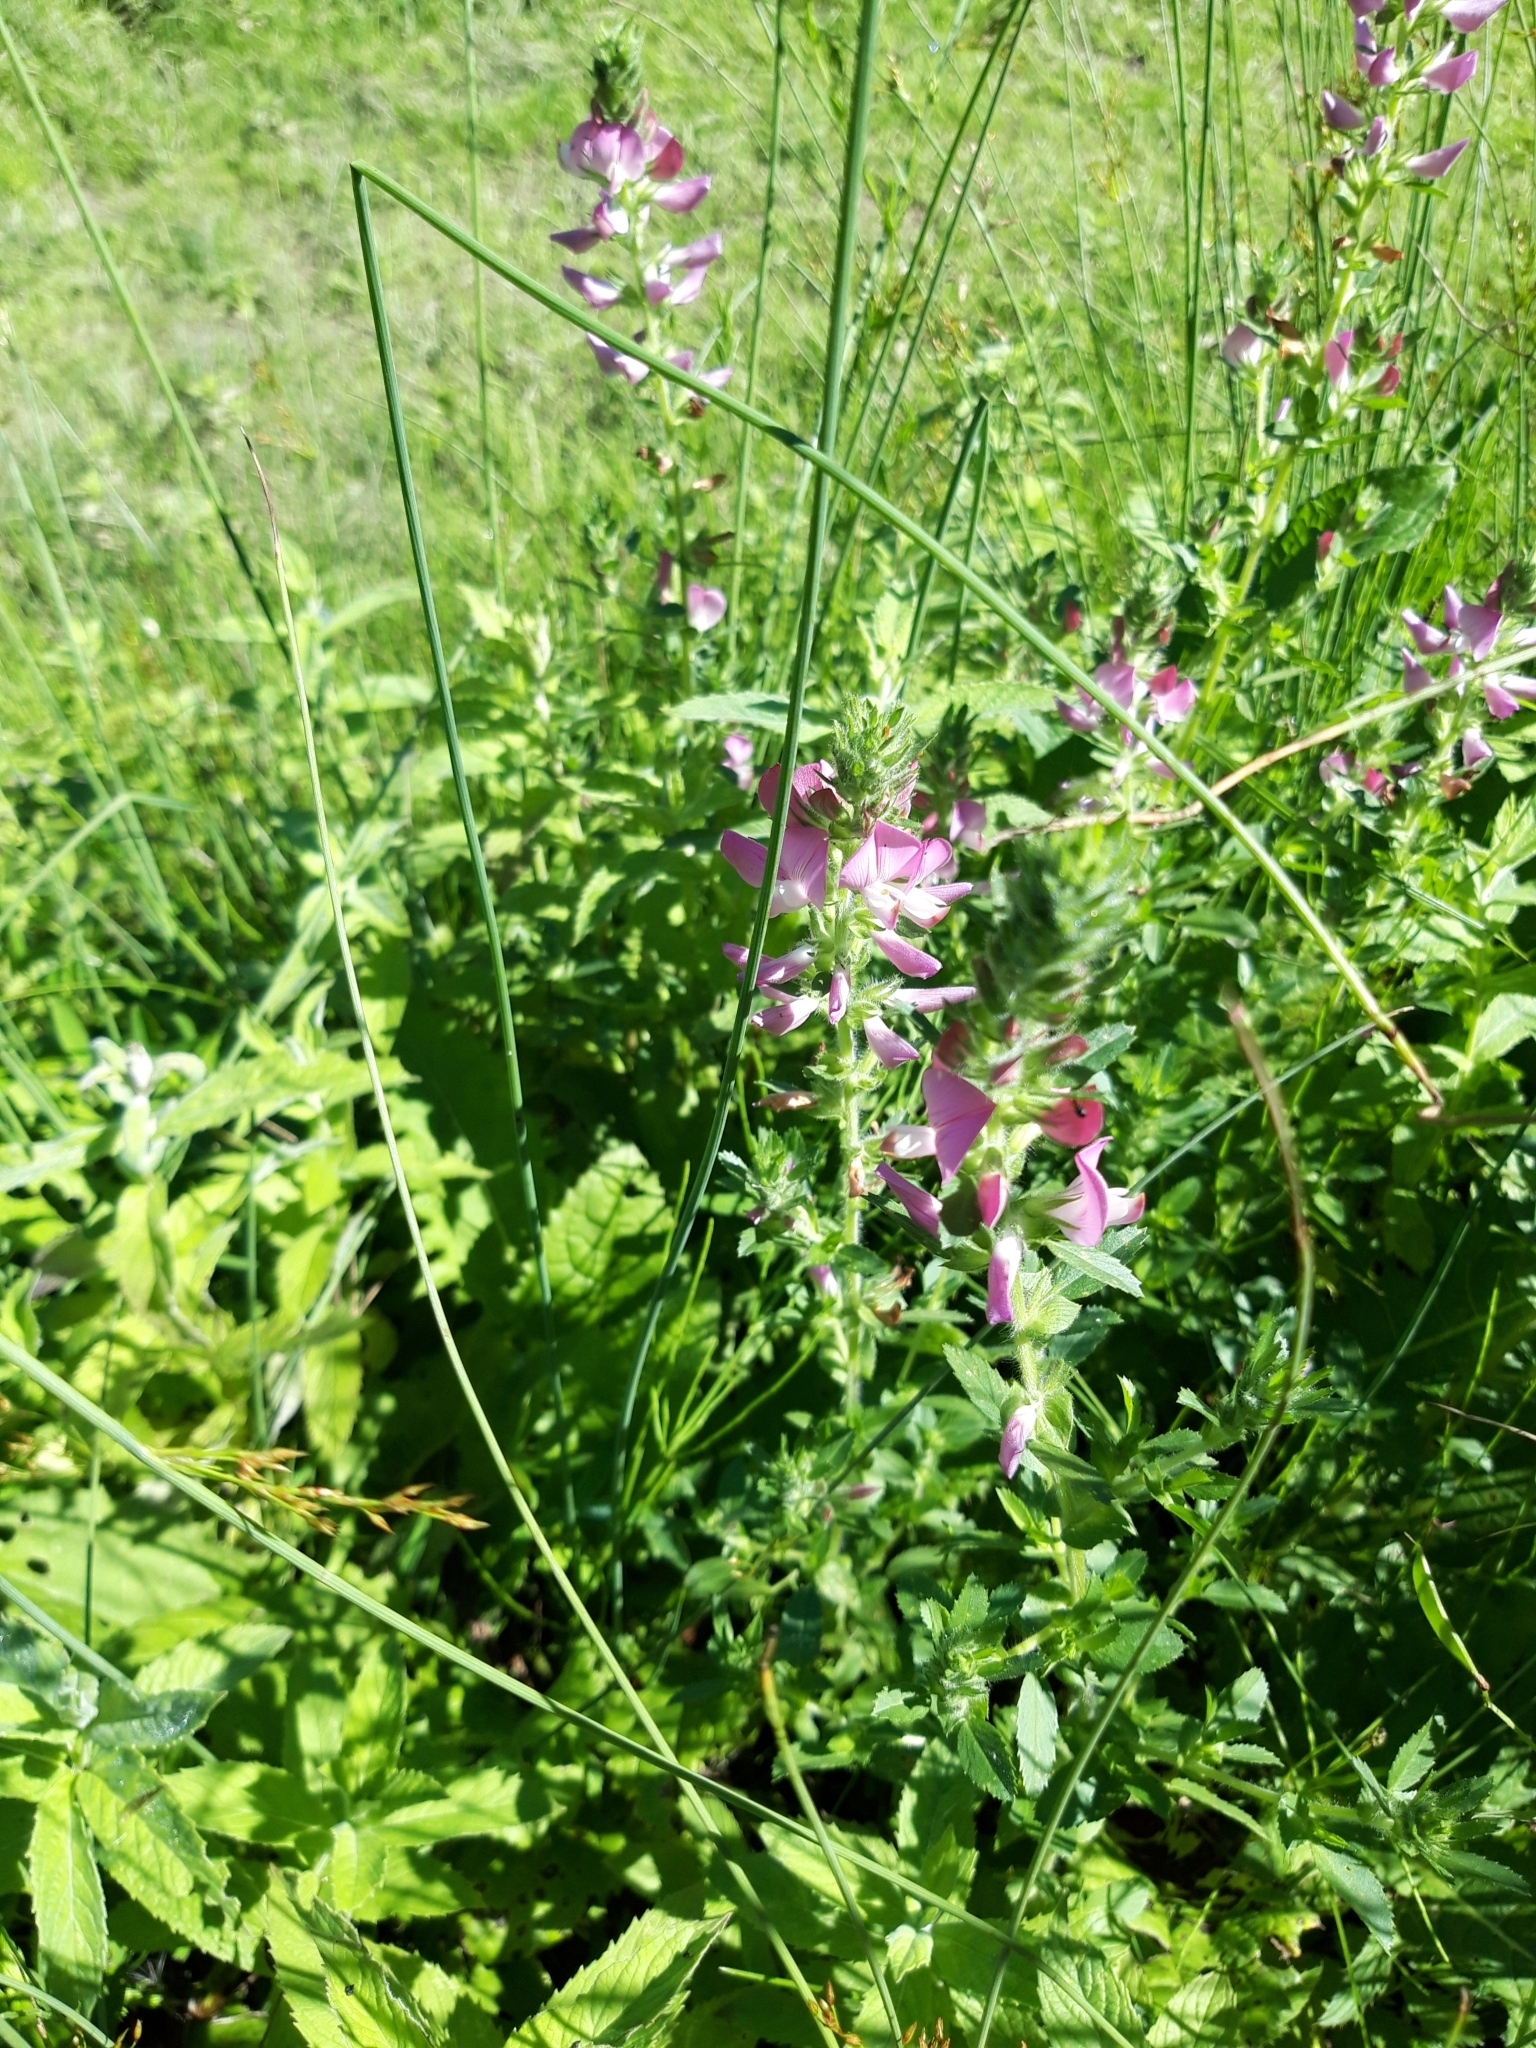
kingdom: Plantae
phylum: Tracheophyta
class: Magnoliopsida
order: Fabales
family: Fabaceae
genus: Ononis
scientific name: Ononis arvensis
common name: Field restharrow
